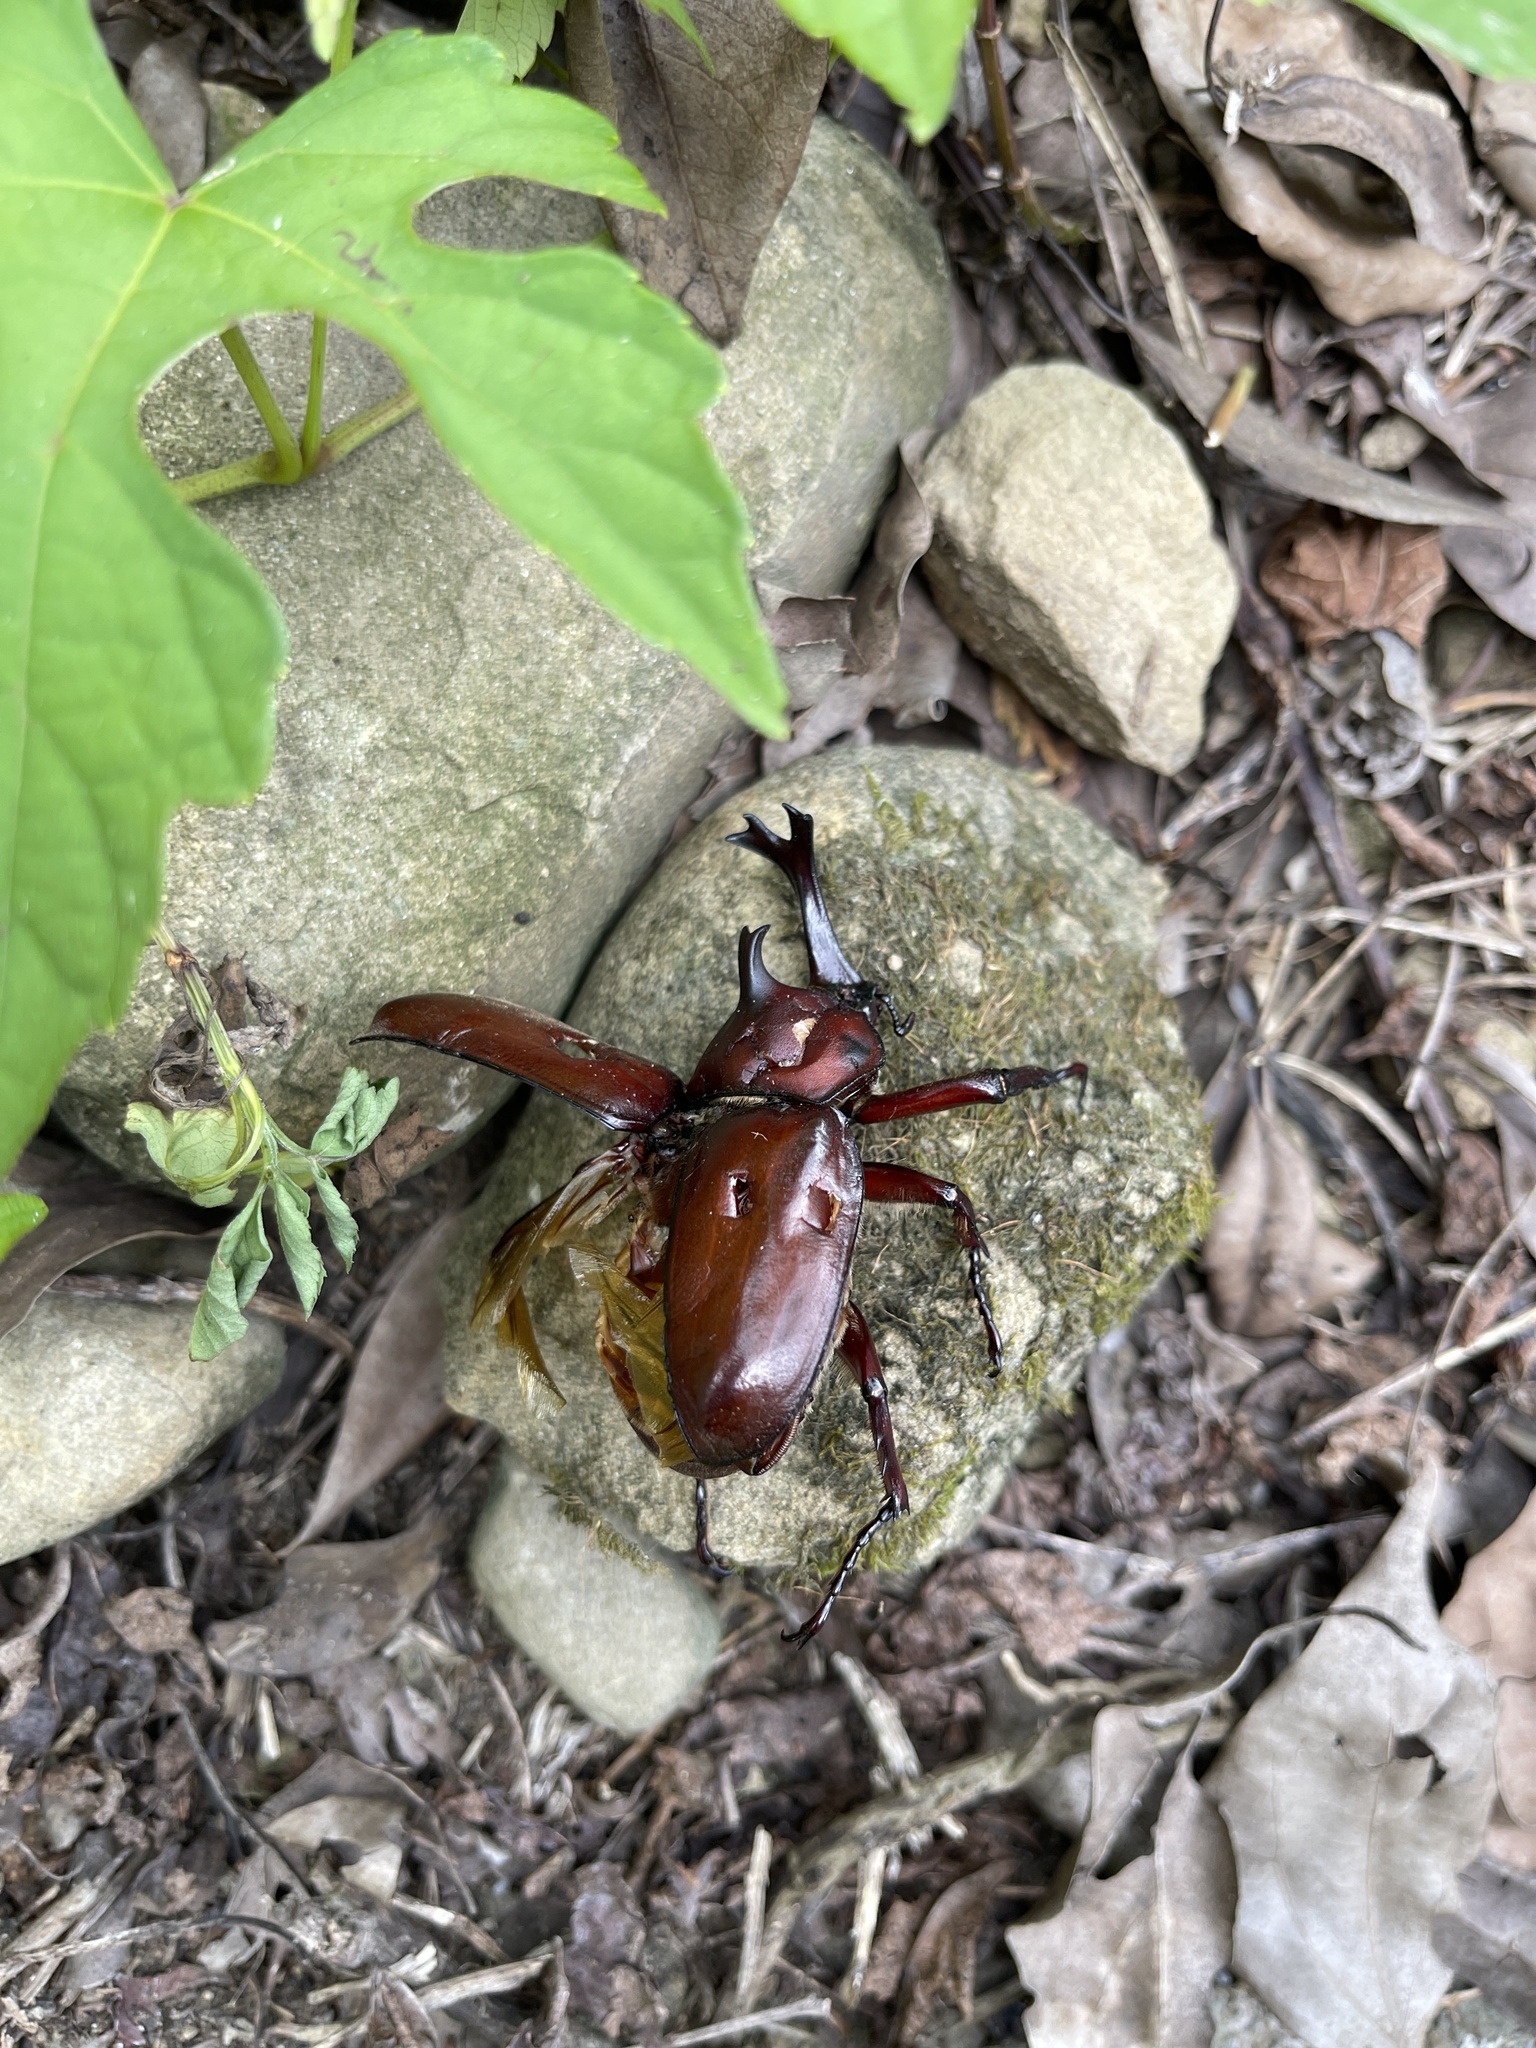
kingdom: Animalia
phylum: Arthropoda
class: Insecta
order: Coleoptera
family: Scarabaeidae
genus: Trypoxylus
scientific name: Trypoxylus dichotomus
